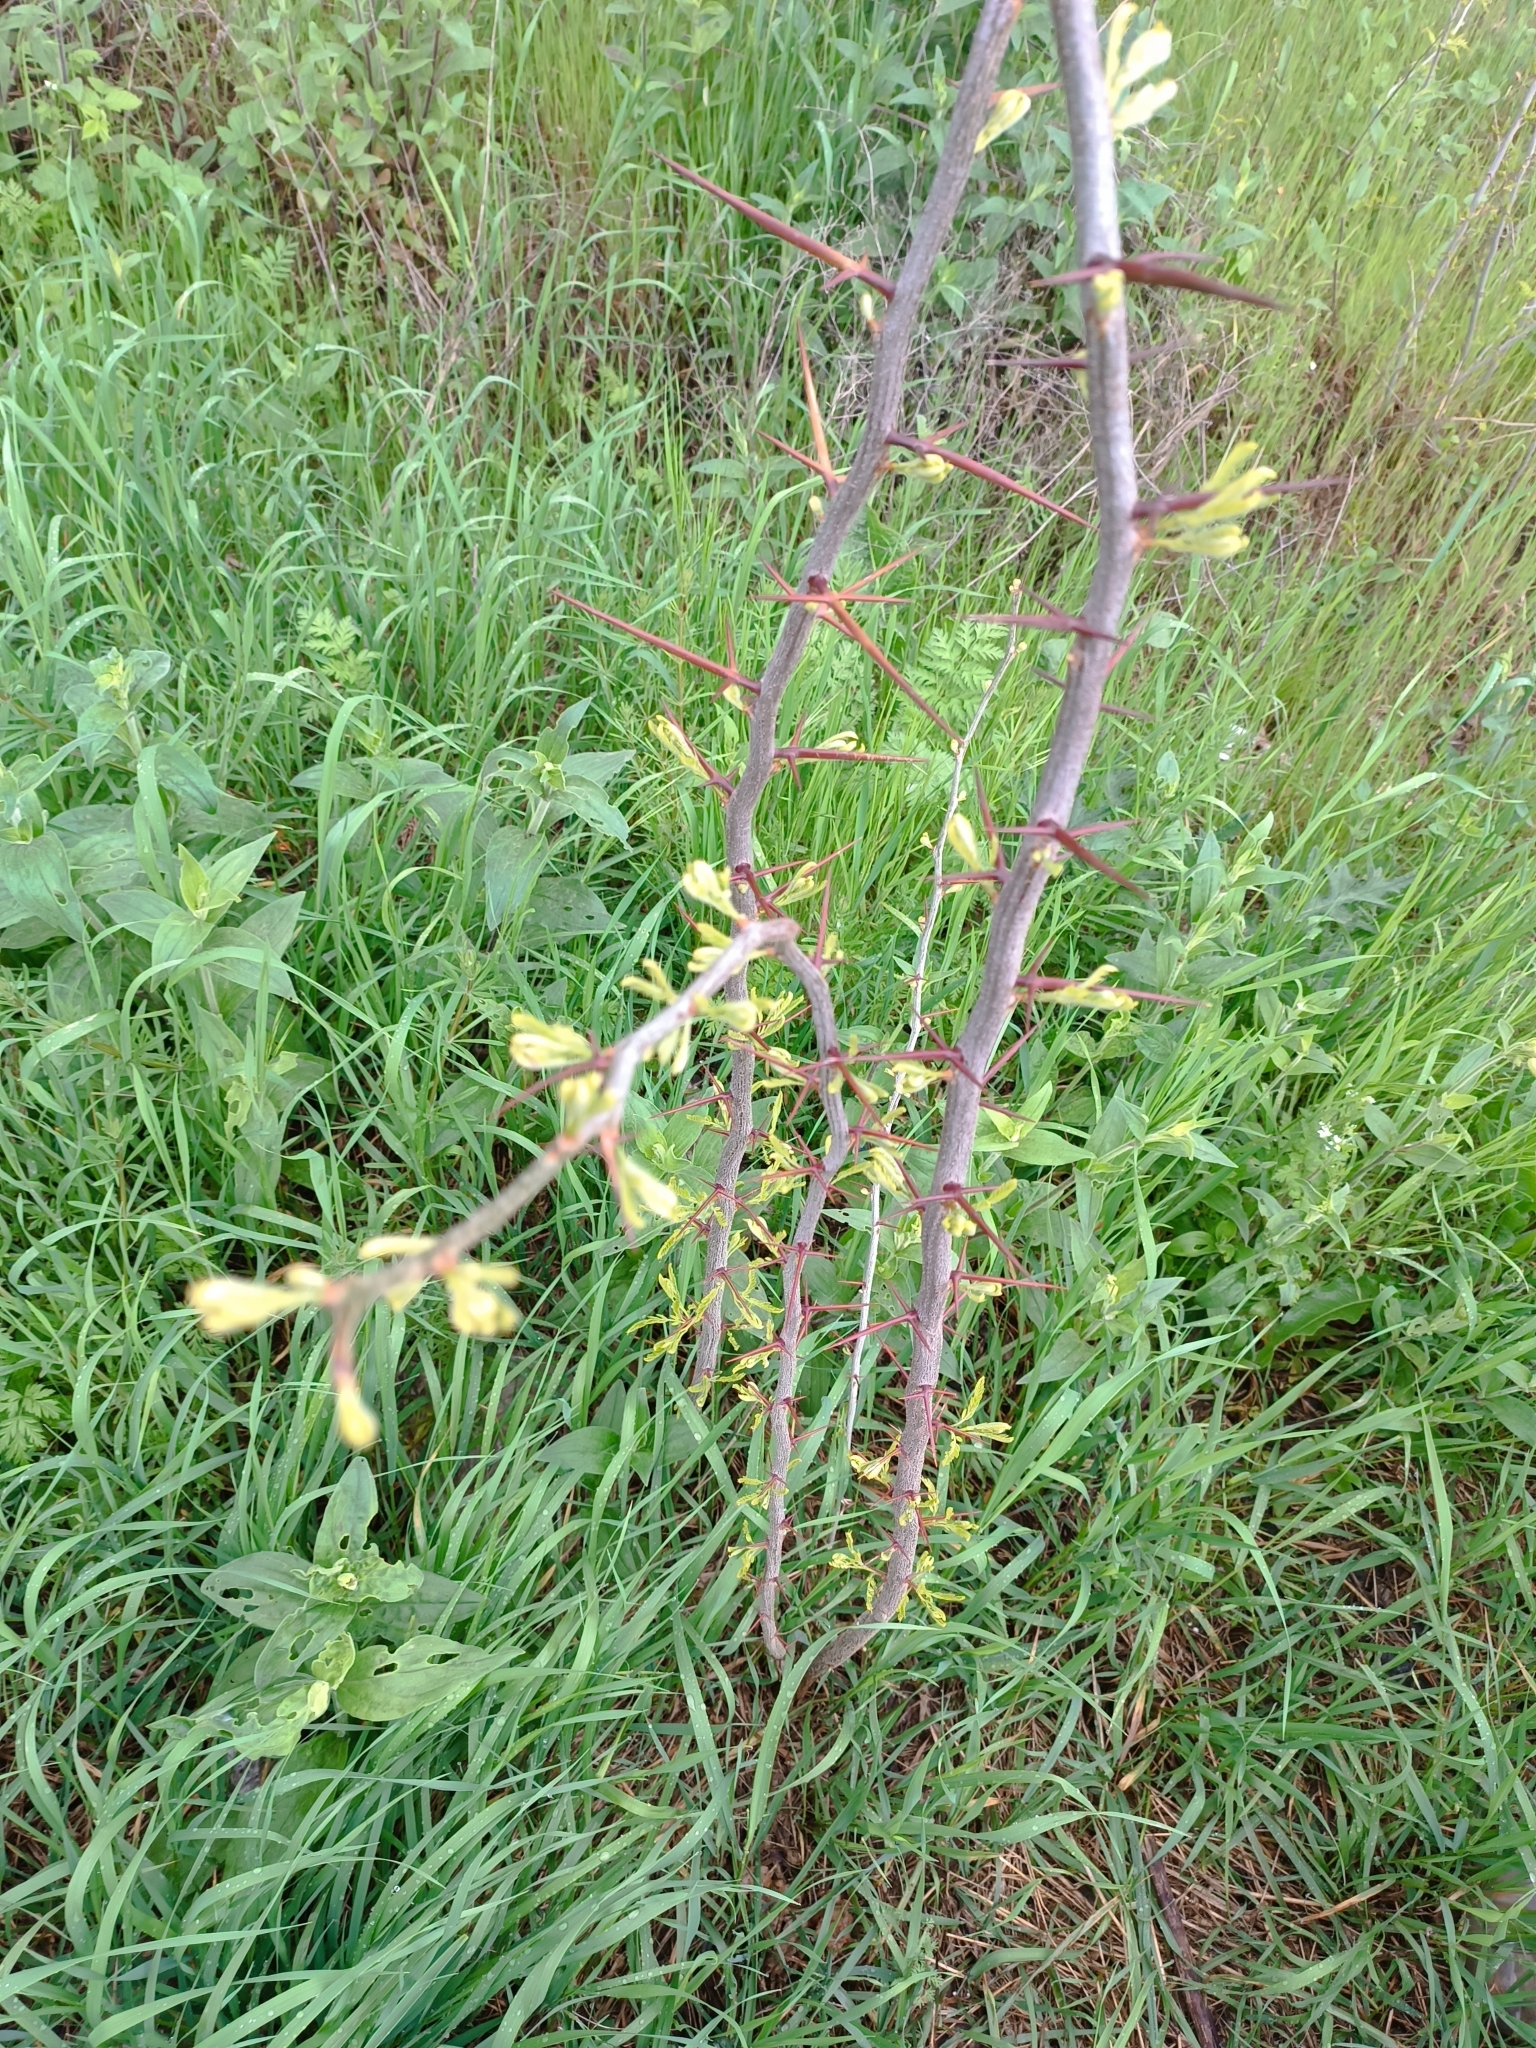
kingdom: Plantae
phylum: Tracheophyta
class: Magnoliopsida
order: Fabales
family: Fabaceae
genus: Gleditsia
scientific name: Gleditsia triacanthos
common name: Common honeylocust
